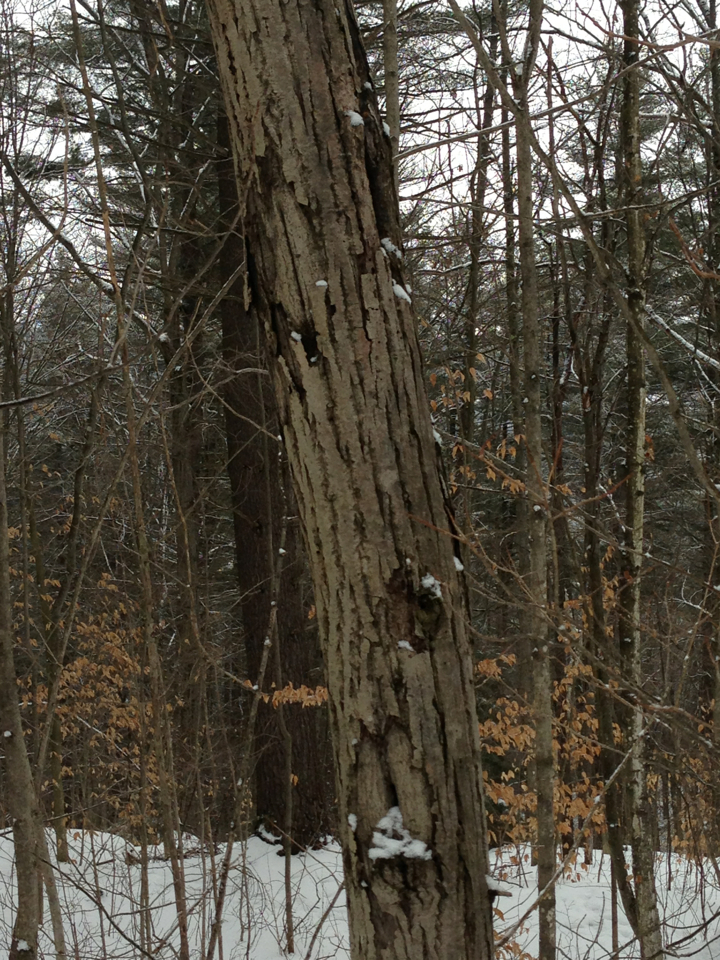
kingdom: Plantae
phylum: Tracheophyta
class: Magnoliopsida
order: Fagales
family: Juglandaceae
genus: Juglans
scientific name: Juglans cinerea
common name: Butternut
